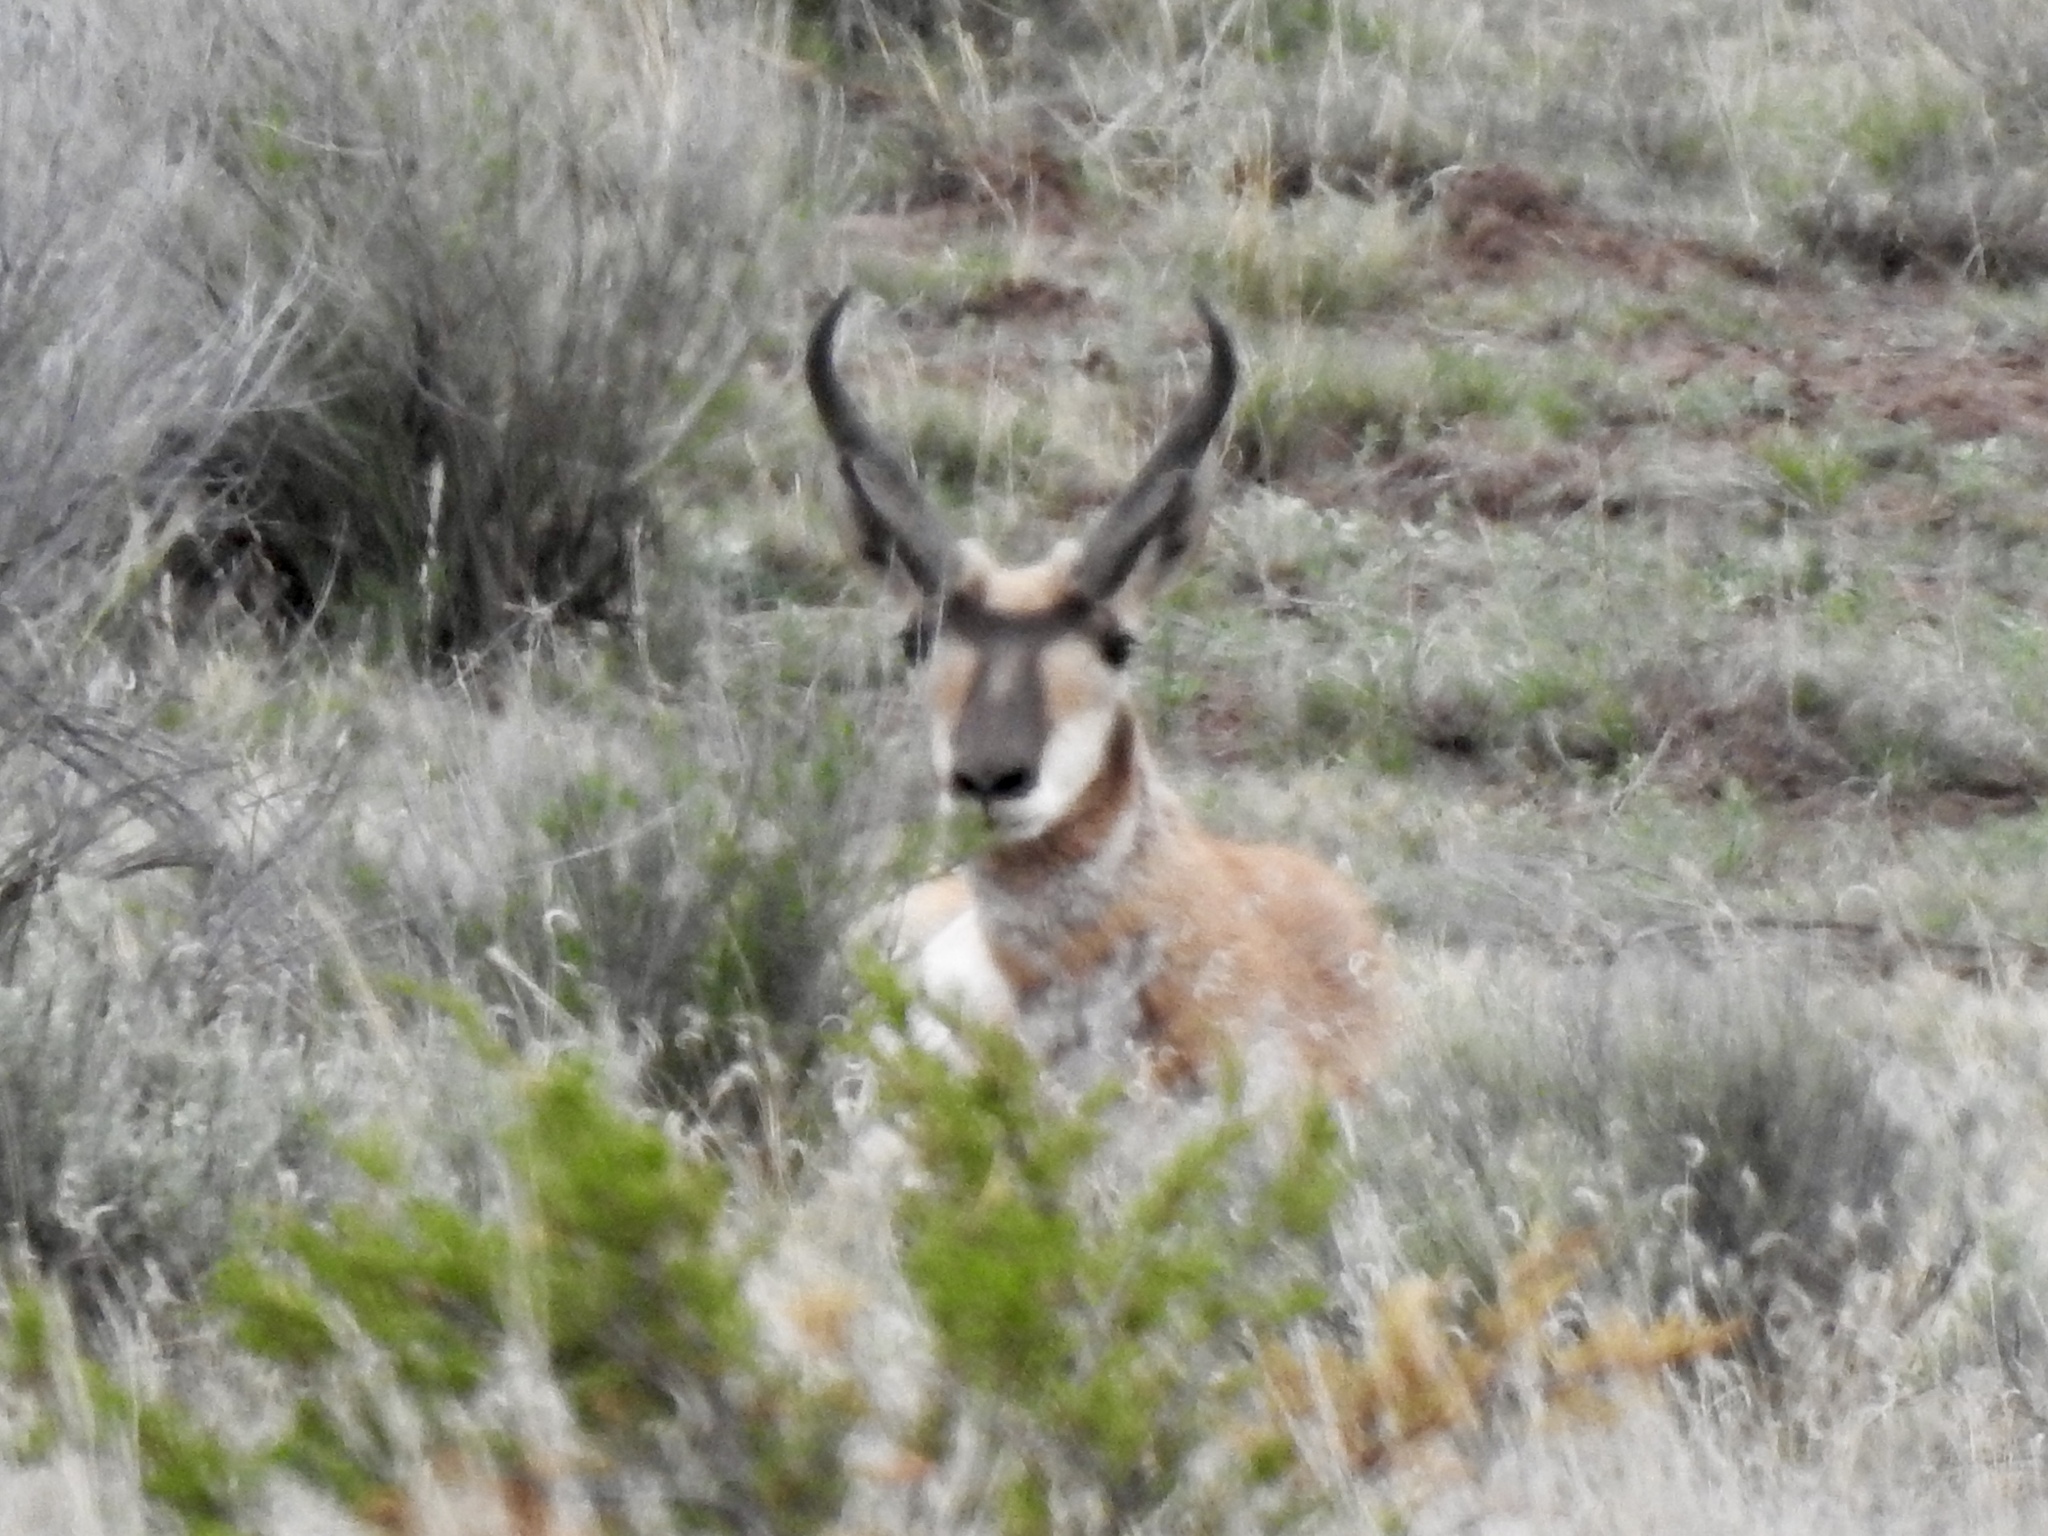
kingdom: Animalia
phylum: Chordata
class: Mammalia
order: Artiodactyla
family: Antilocapridae
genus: Antilocapra
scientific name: Antilocapra americana
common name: Pronghorn
